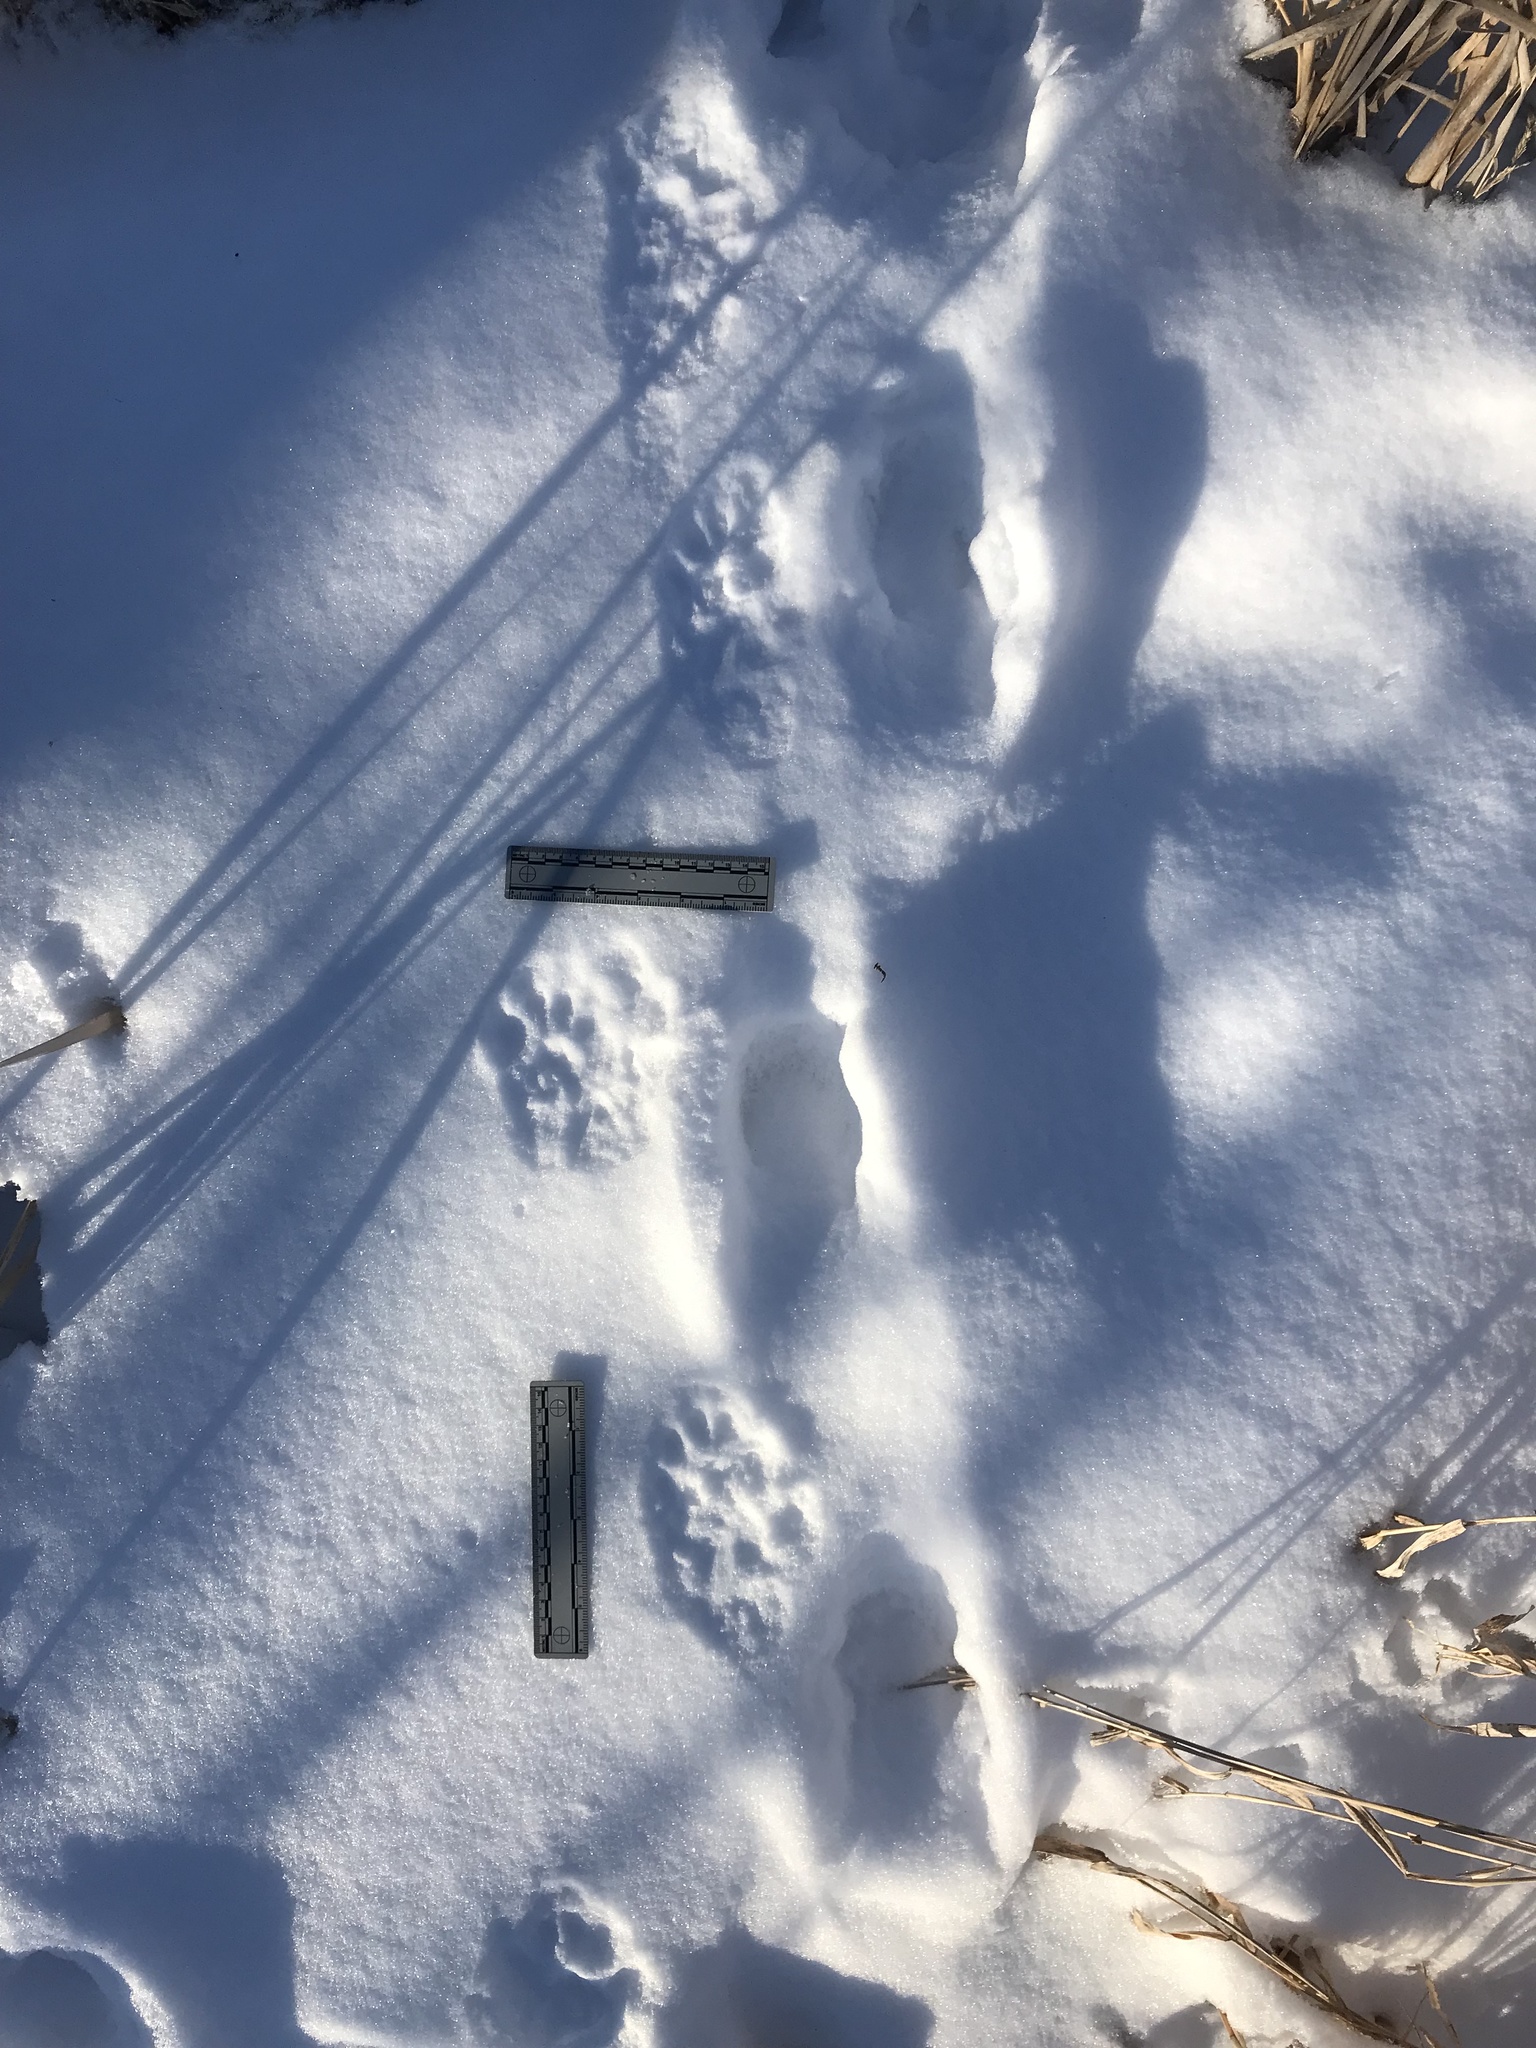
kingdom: Animalia
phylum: Chordata
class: Mammalia
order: Carnivora
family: Mustelidae
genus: Pekania
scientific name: Pekania pennanti
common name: Fisher
